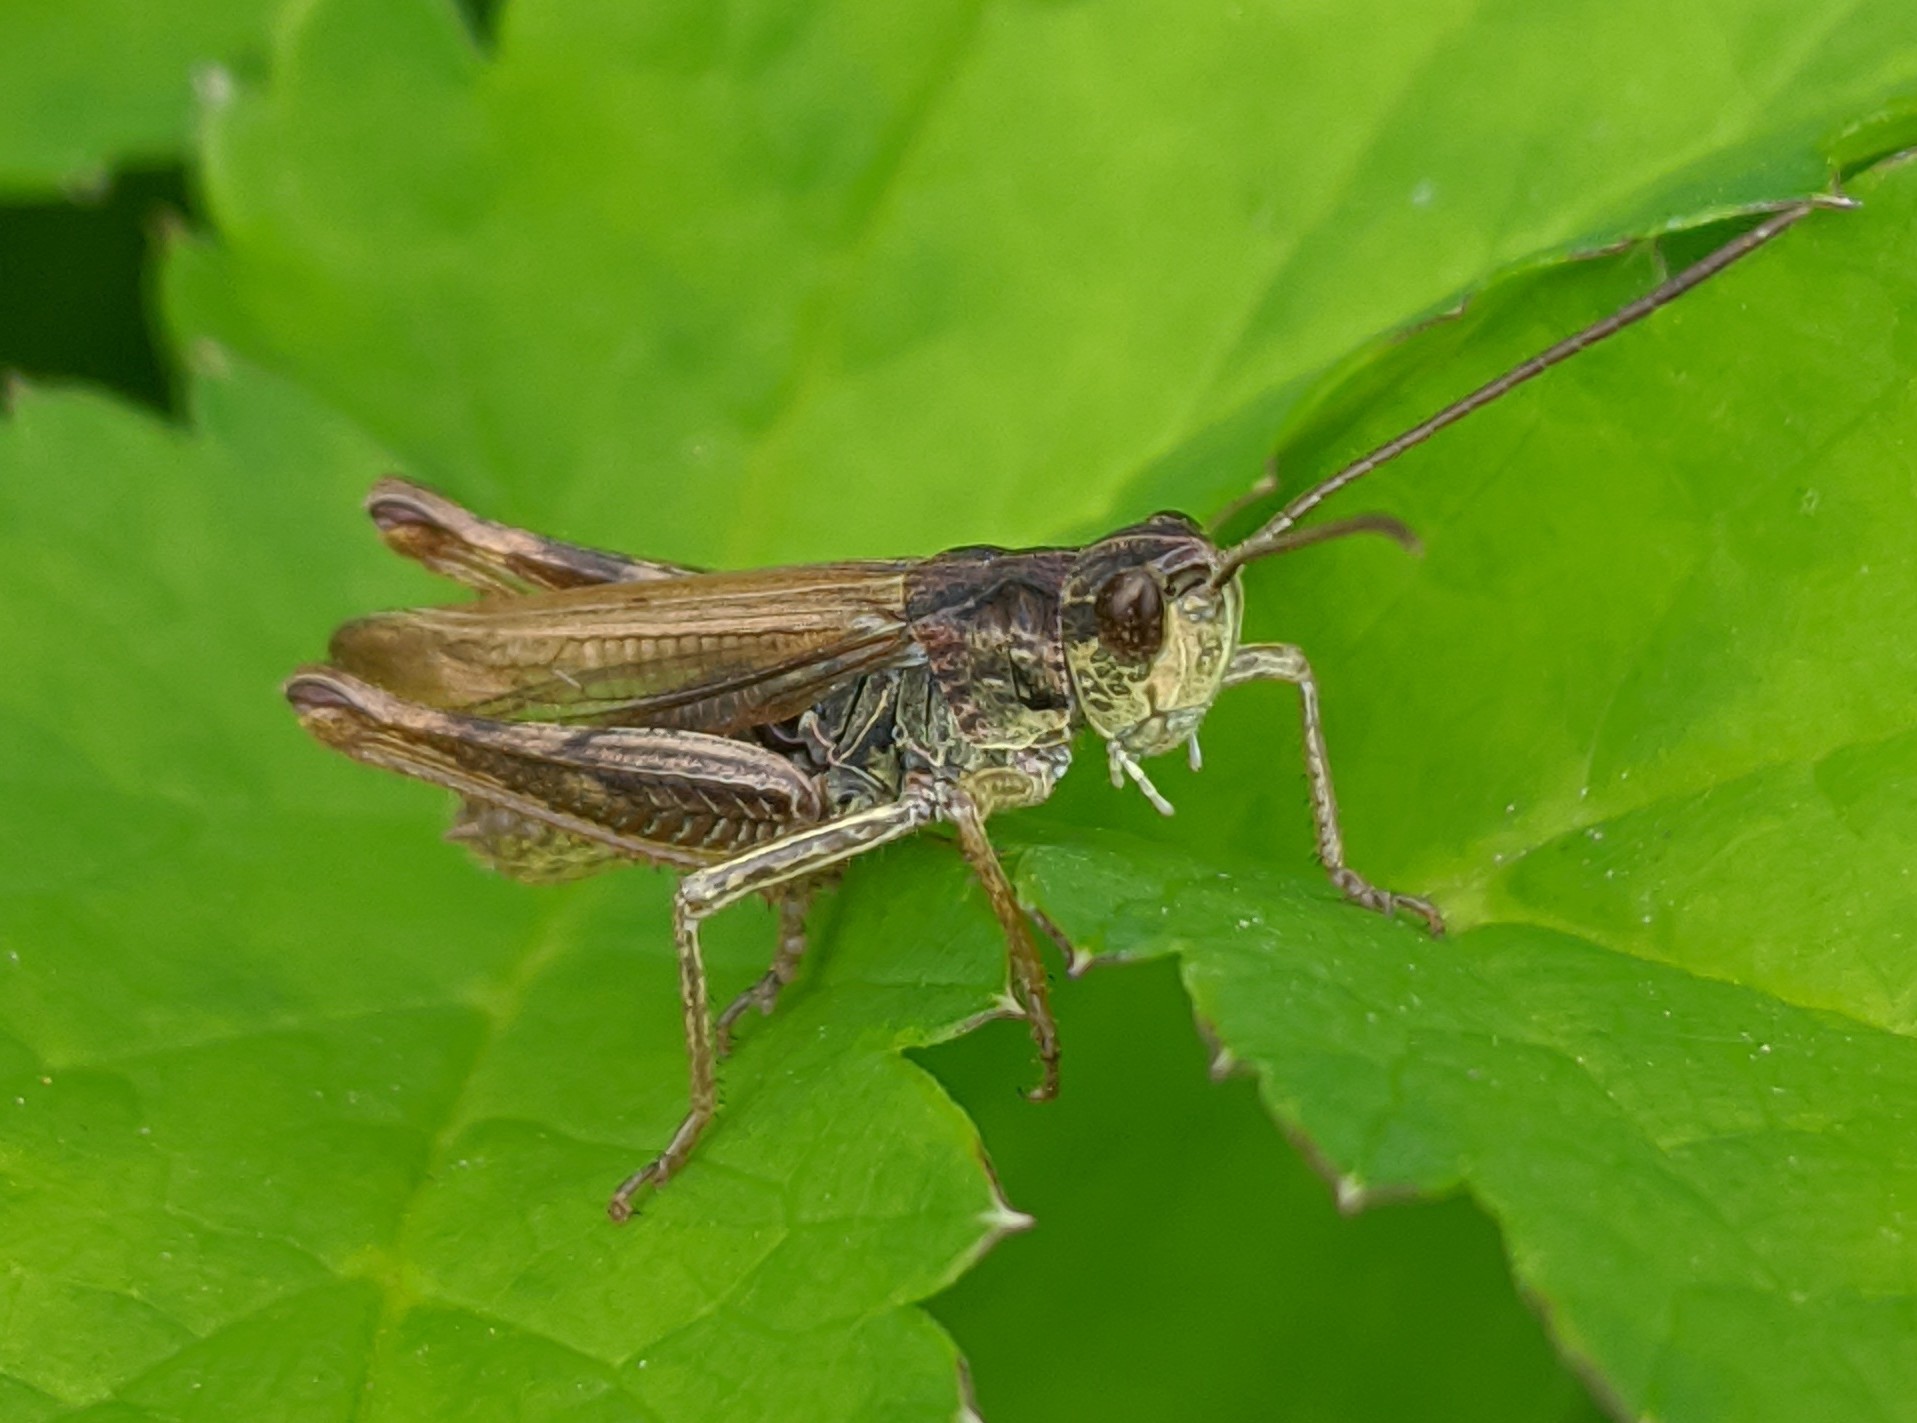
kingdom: Animalia
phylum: Arthropoda
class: Insecta
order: Orthoptera
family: Acrididae
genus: Chorthippus
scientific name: Chorthippus apricarius
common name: Upland field grasshopper
